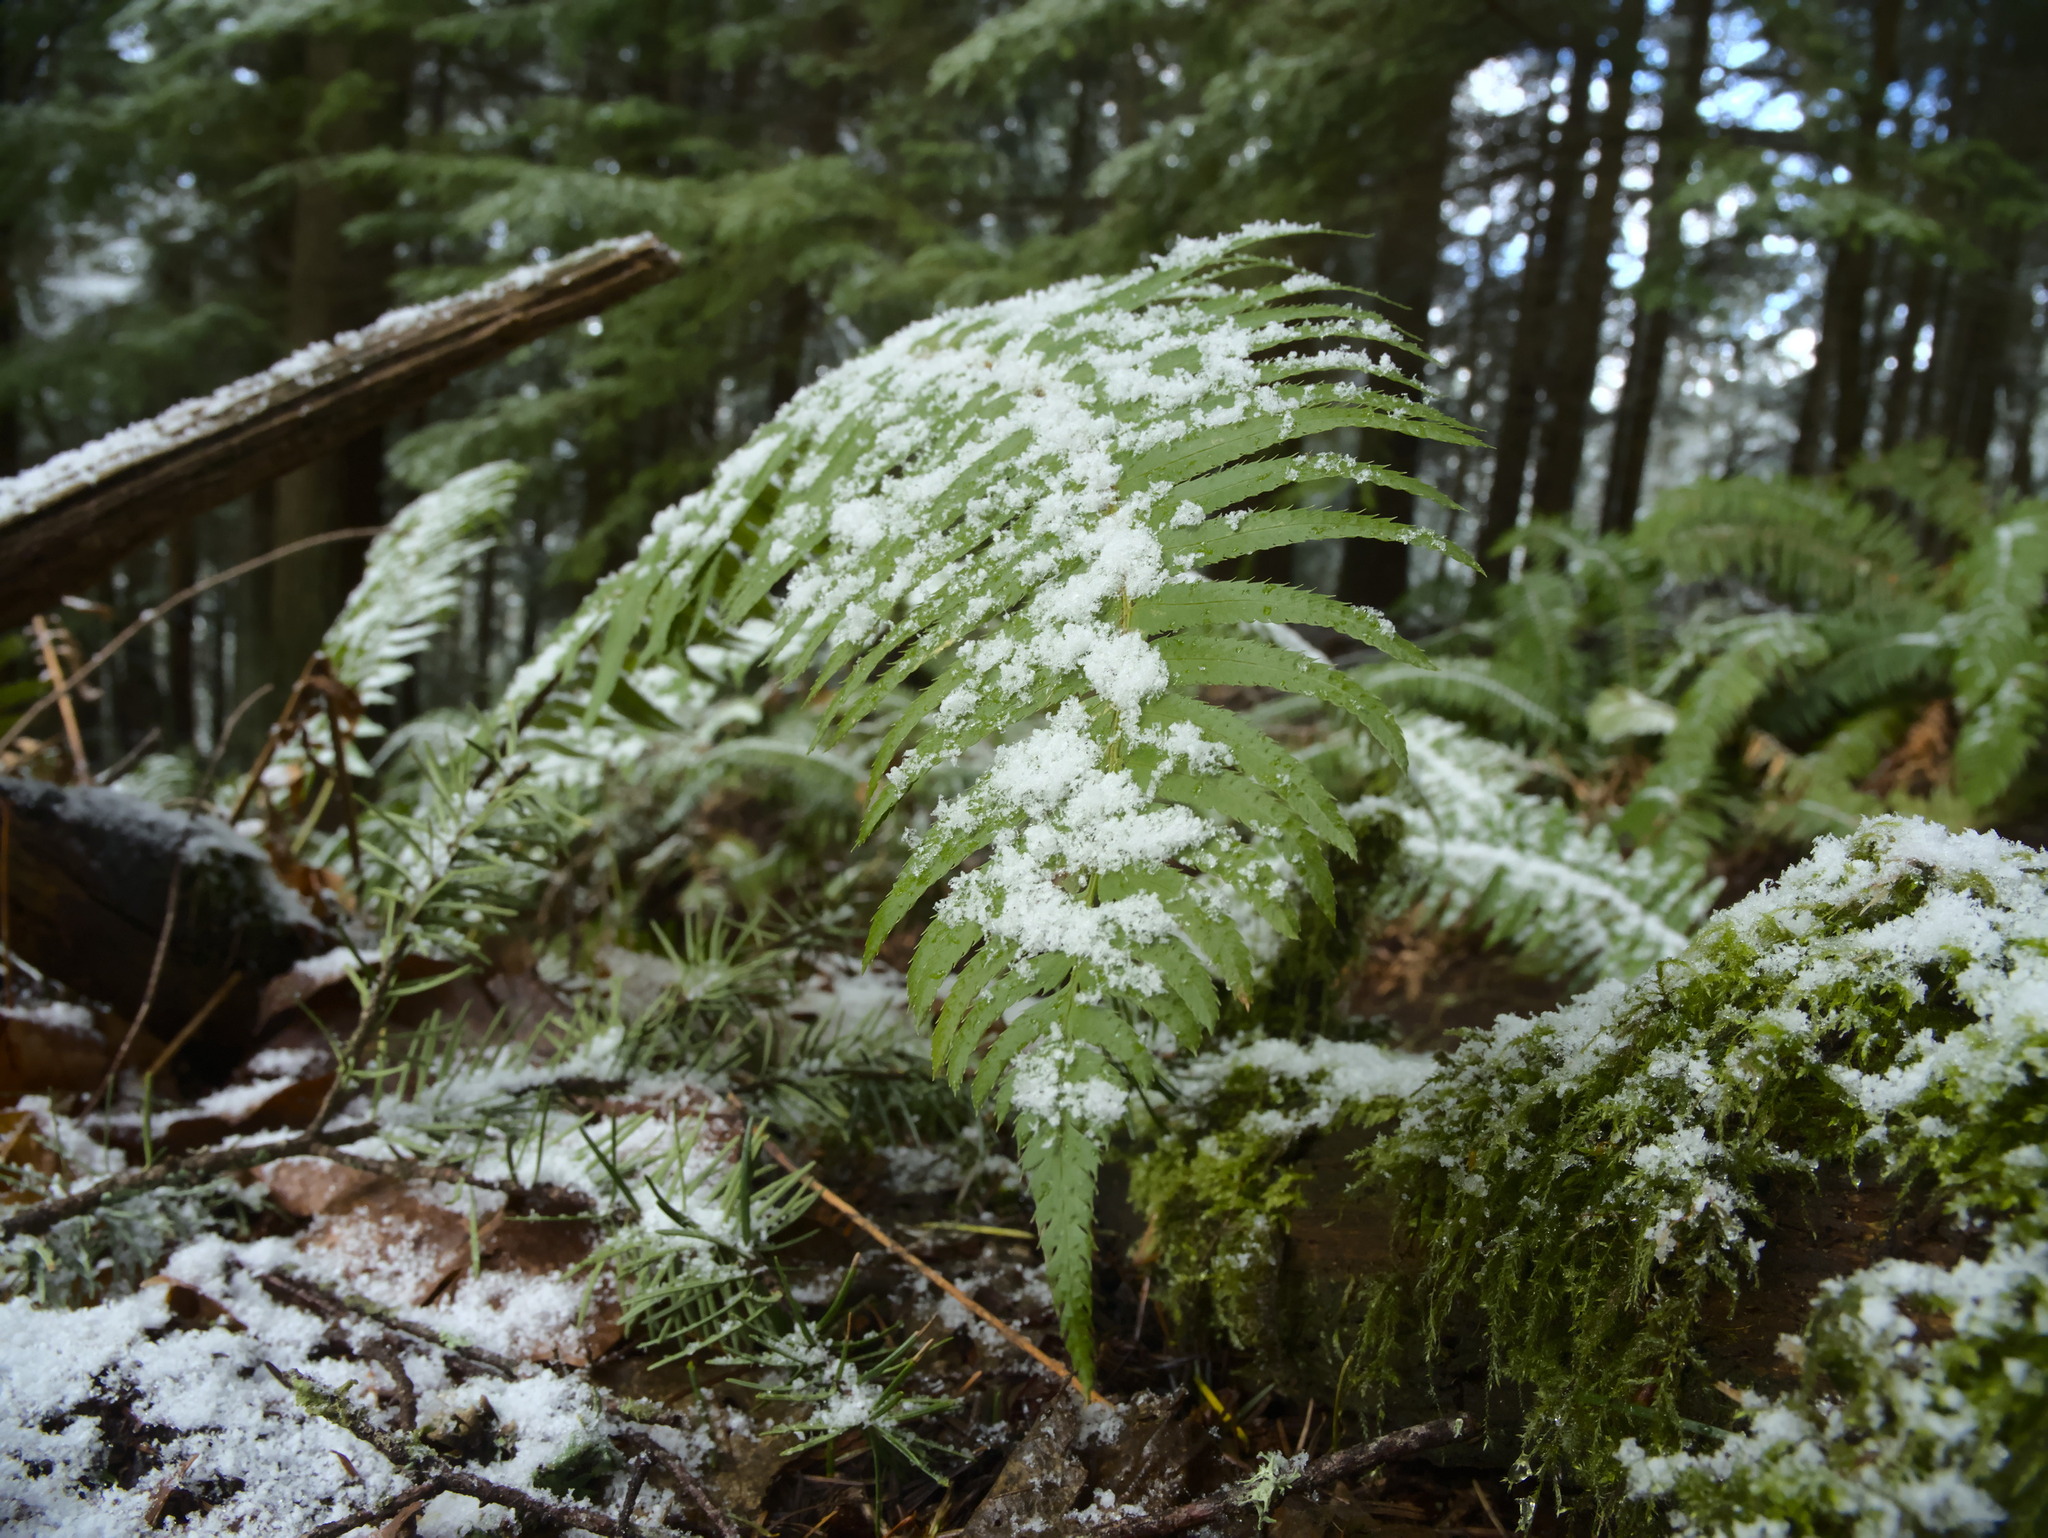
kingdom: Plantae
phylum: Tracheophyta
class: Polypodiopsida
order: Polypodiales
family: Dryopteridaceae
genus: Polystichum
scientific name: Polystichum munitum
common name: Western sword-fern
